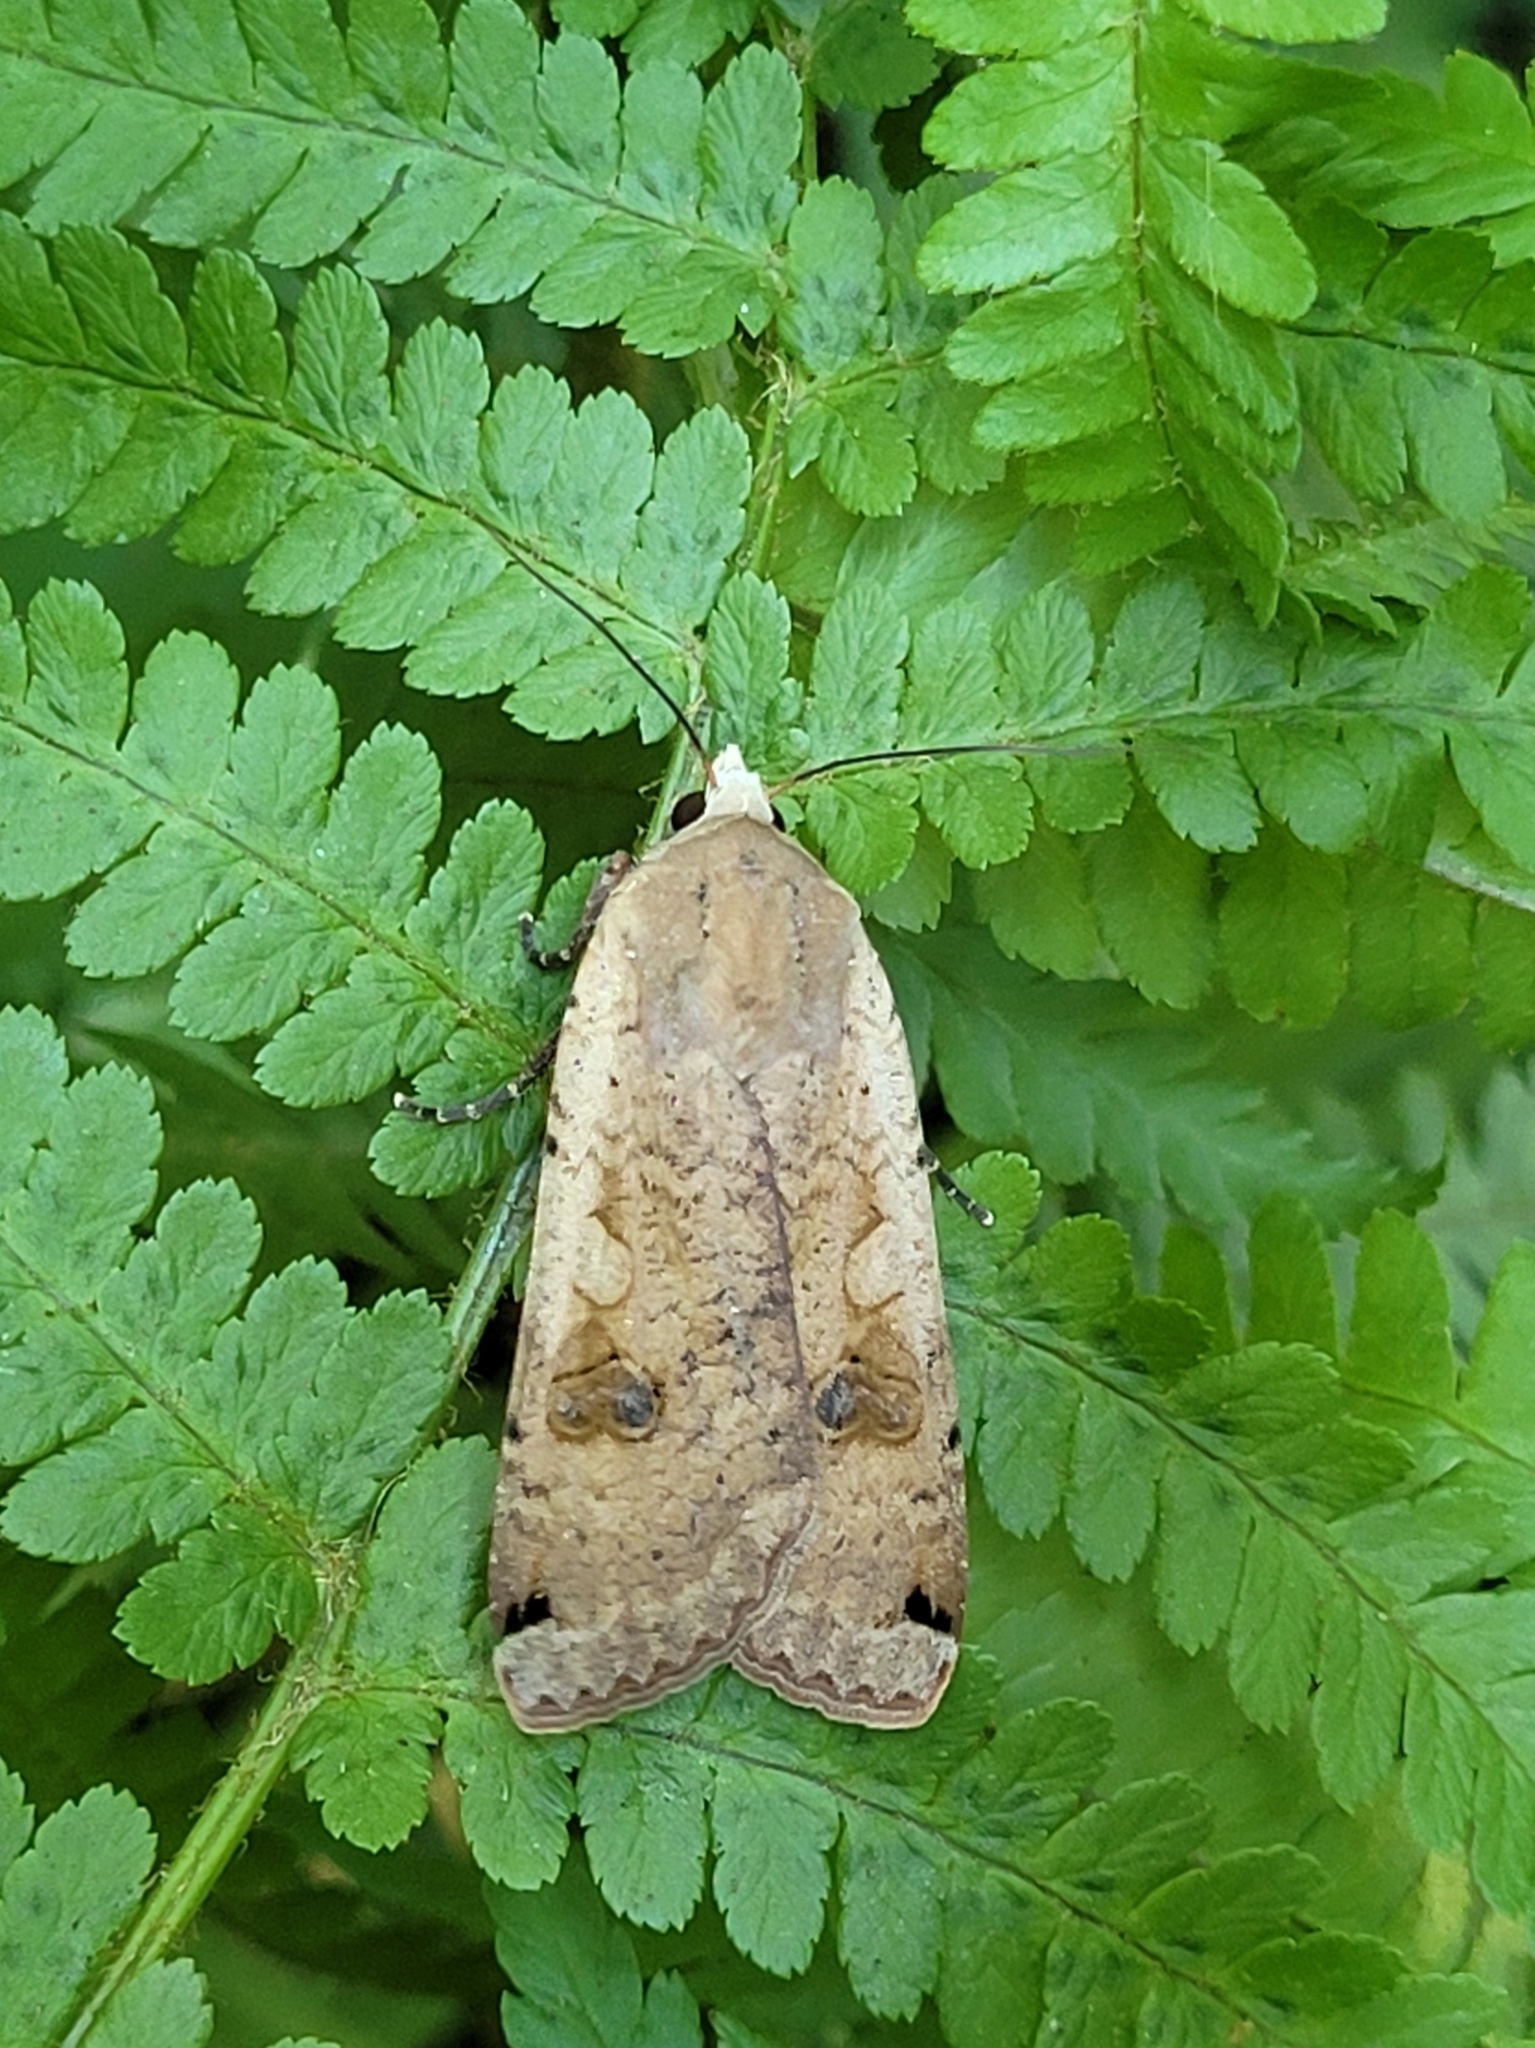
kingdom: Animalia
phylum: Arthropoda
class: Insecta
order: Lepidoptera
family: Noctuidae
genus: Noctua
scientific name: Noctua pronuba
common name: Large yellow underwing
